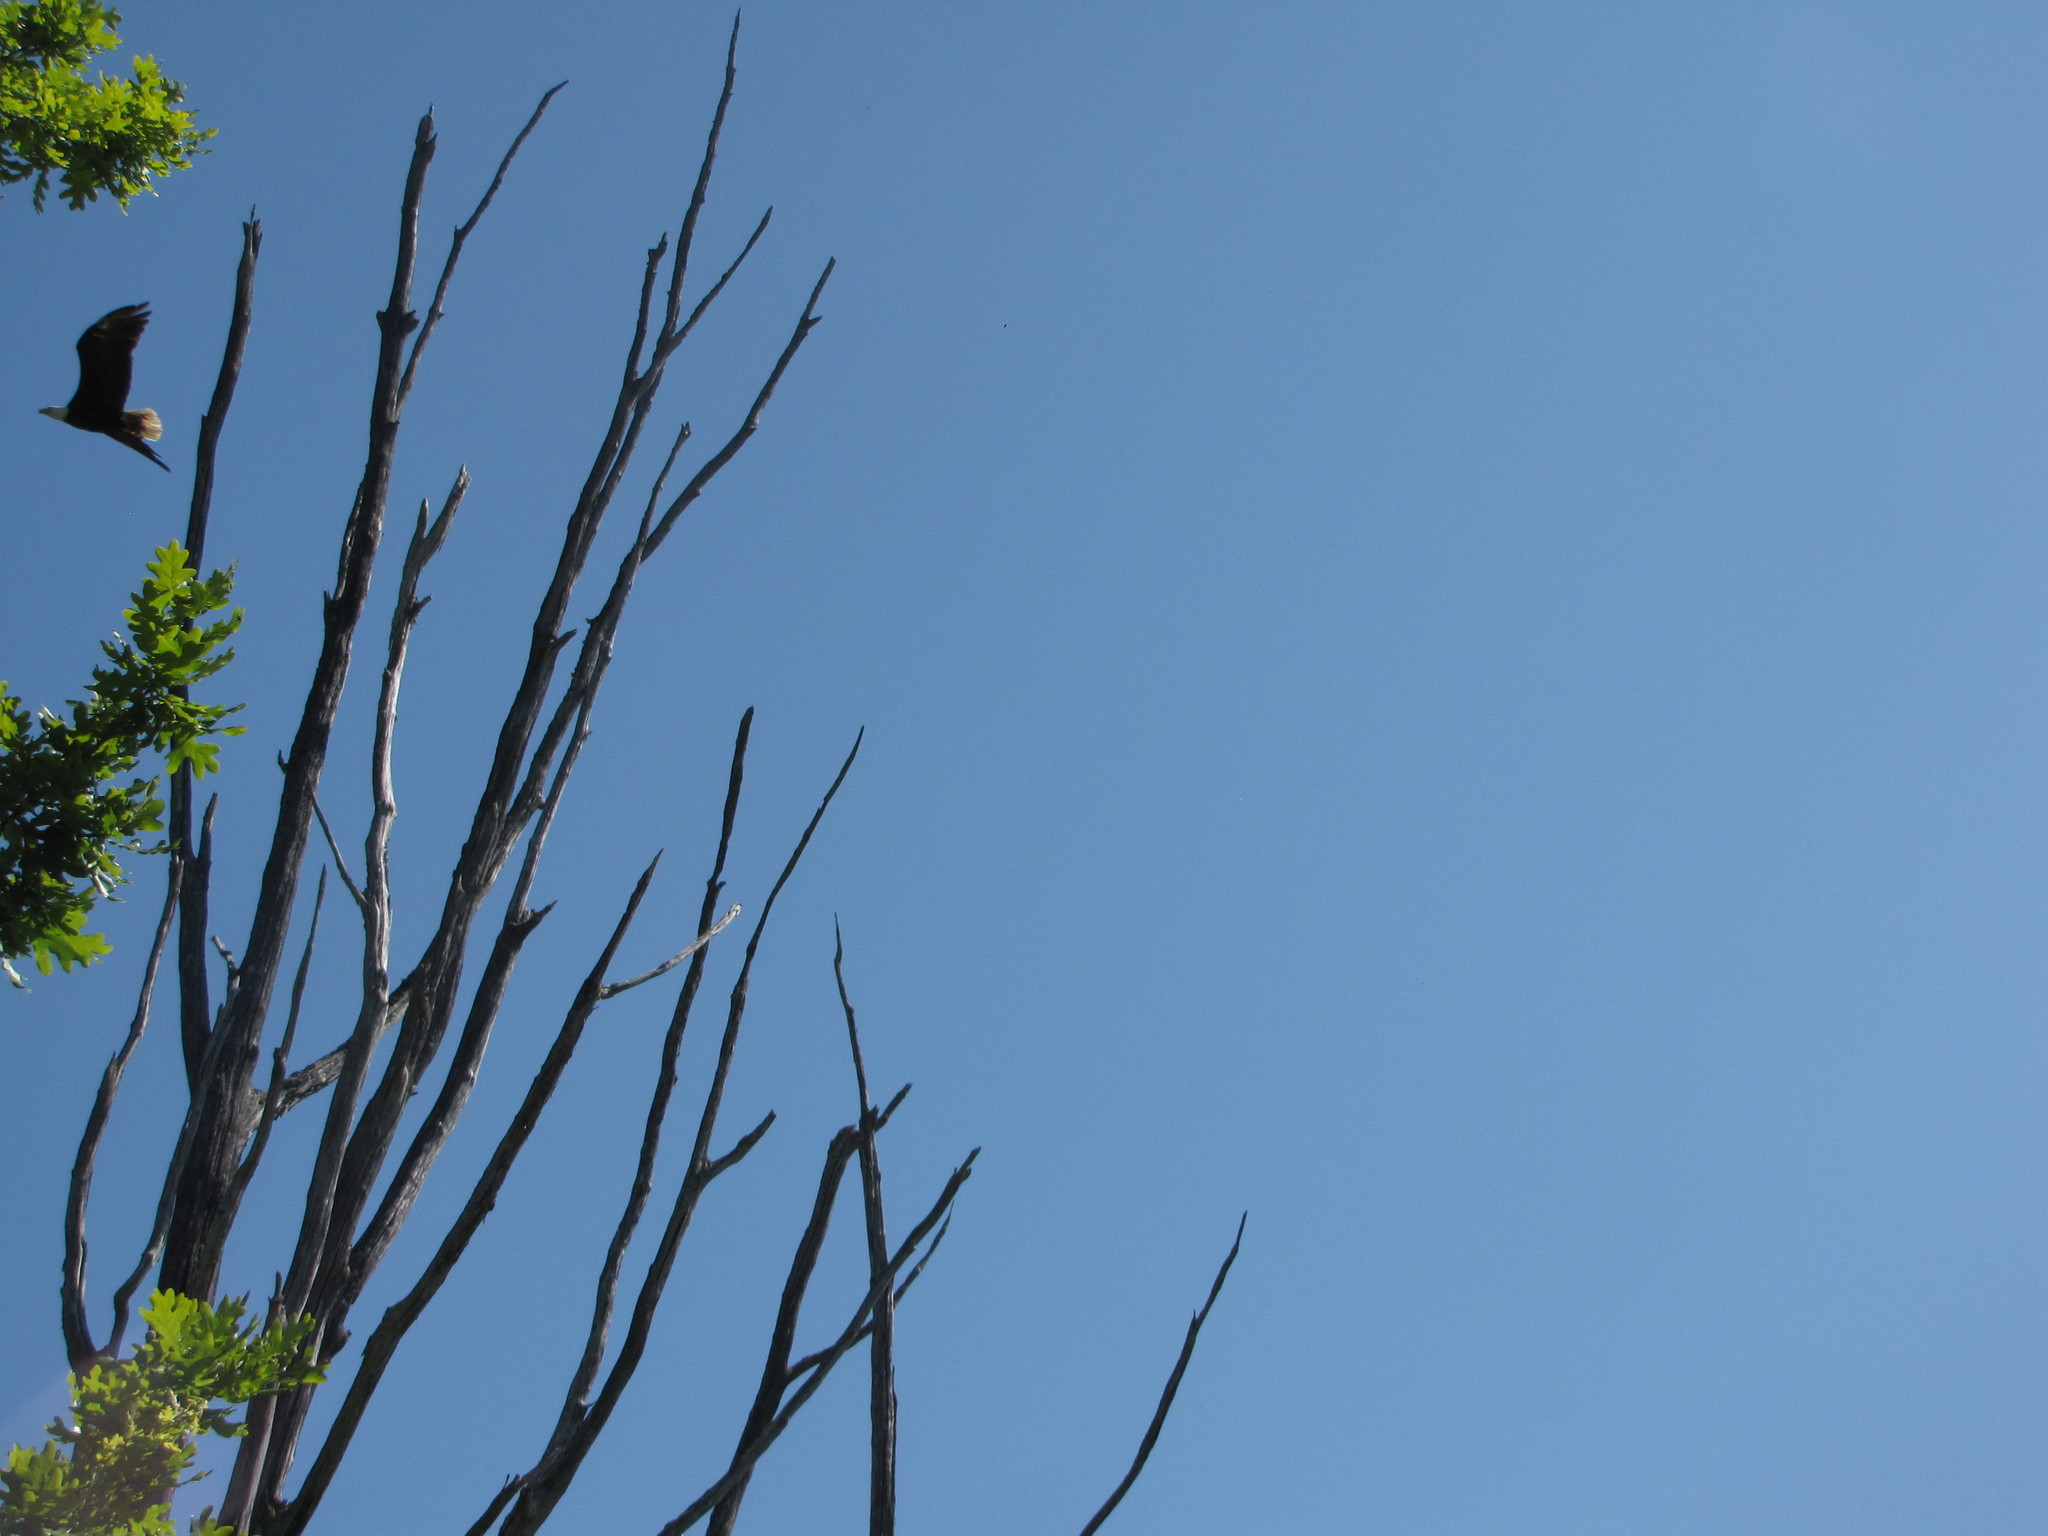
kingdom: Animalia
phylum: Chordata
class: Aves
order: Accipitriformes
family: Accipitridae
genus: Haliaeetus
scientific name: Haliaeetus leucocephalus
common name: Bald eagle
